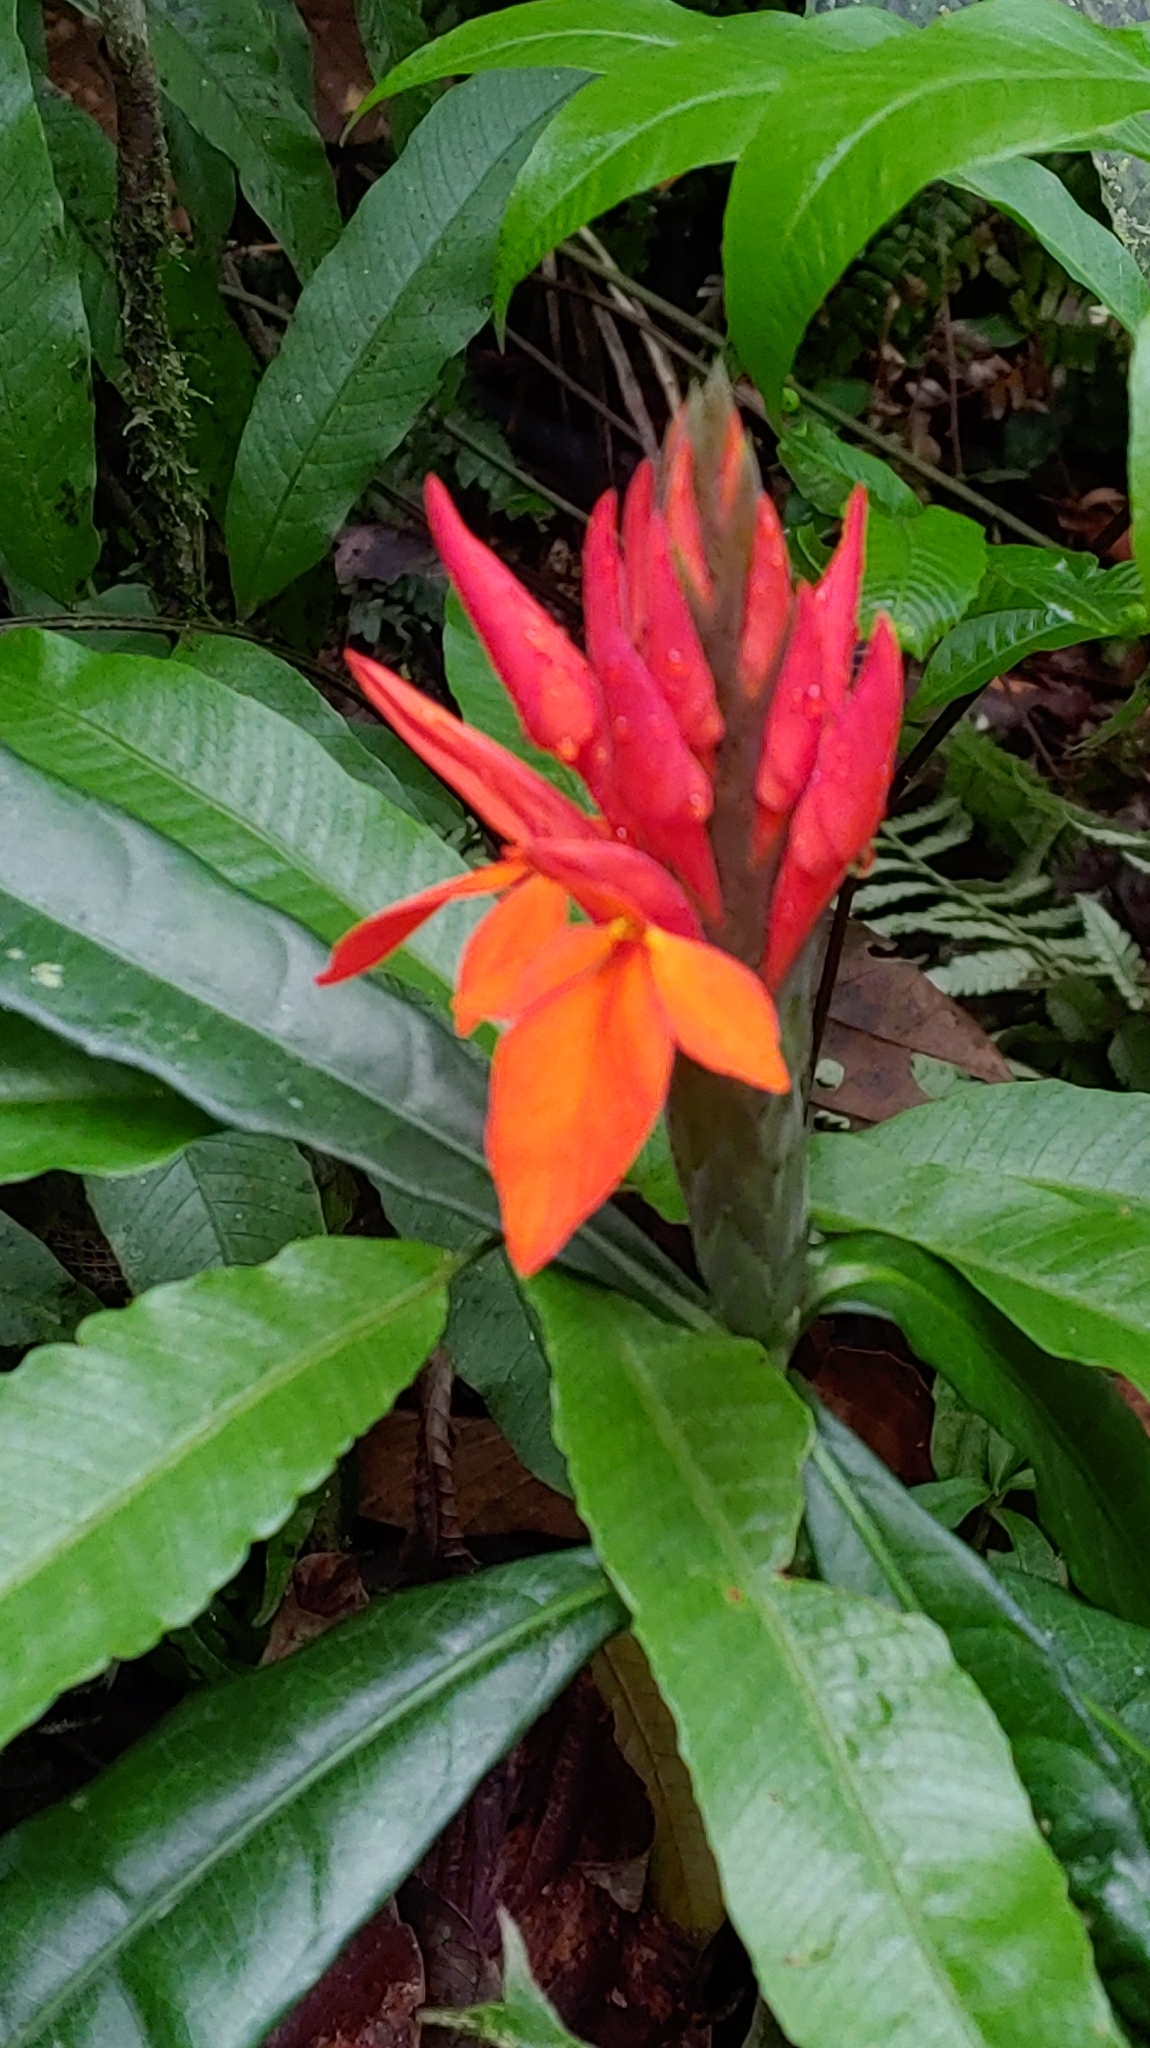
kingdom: Plantae
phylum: Tracheophyta
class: Magnoliopsida
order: Lamiales
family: Acanthaceae
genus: Aphelandra
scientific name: Aphelandra aurantiaca
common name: Fiery spike
